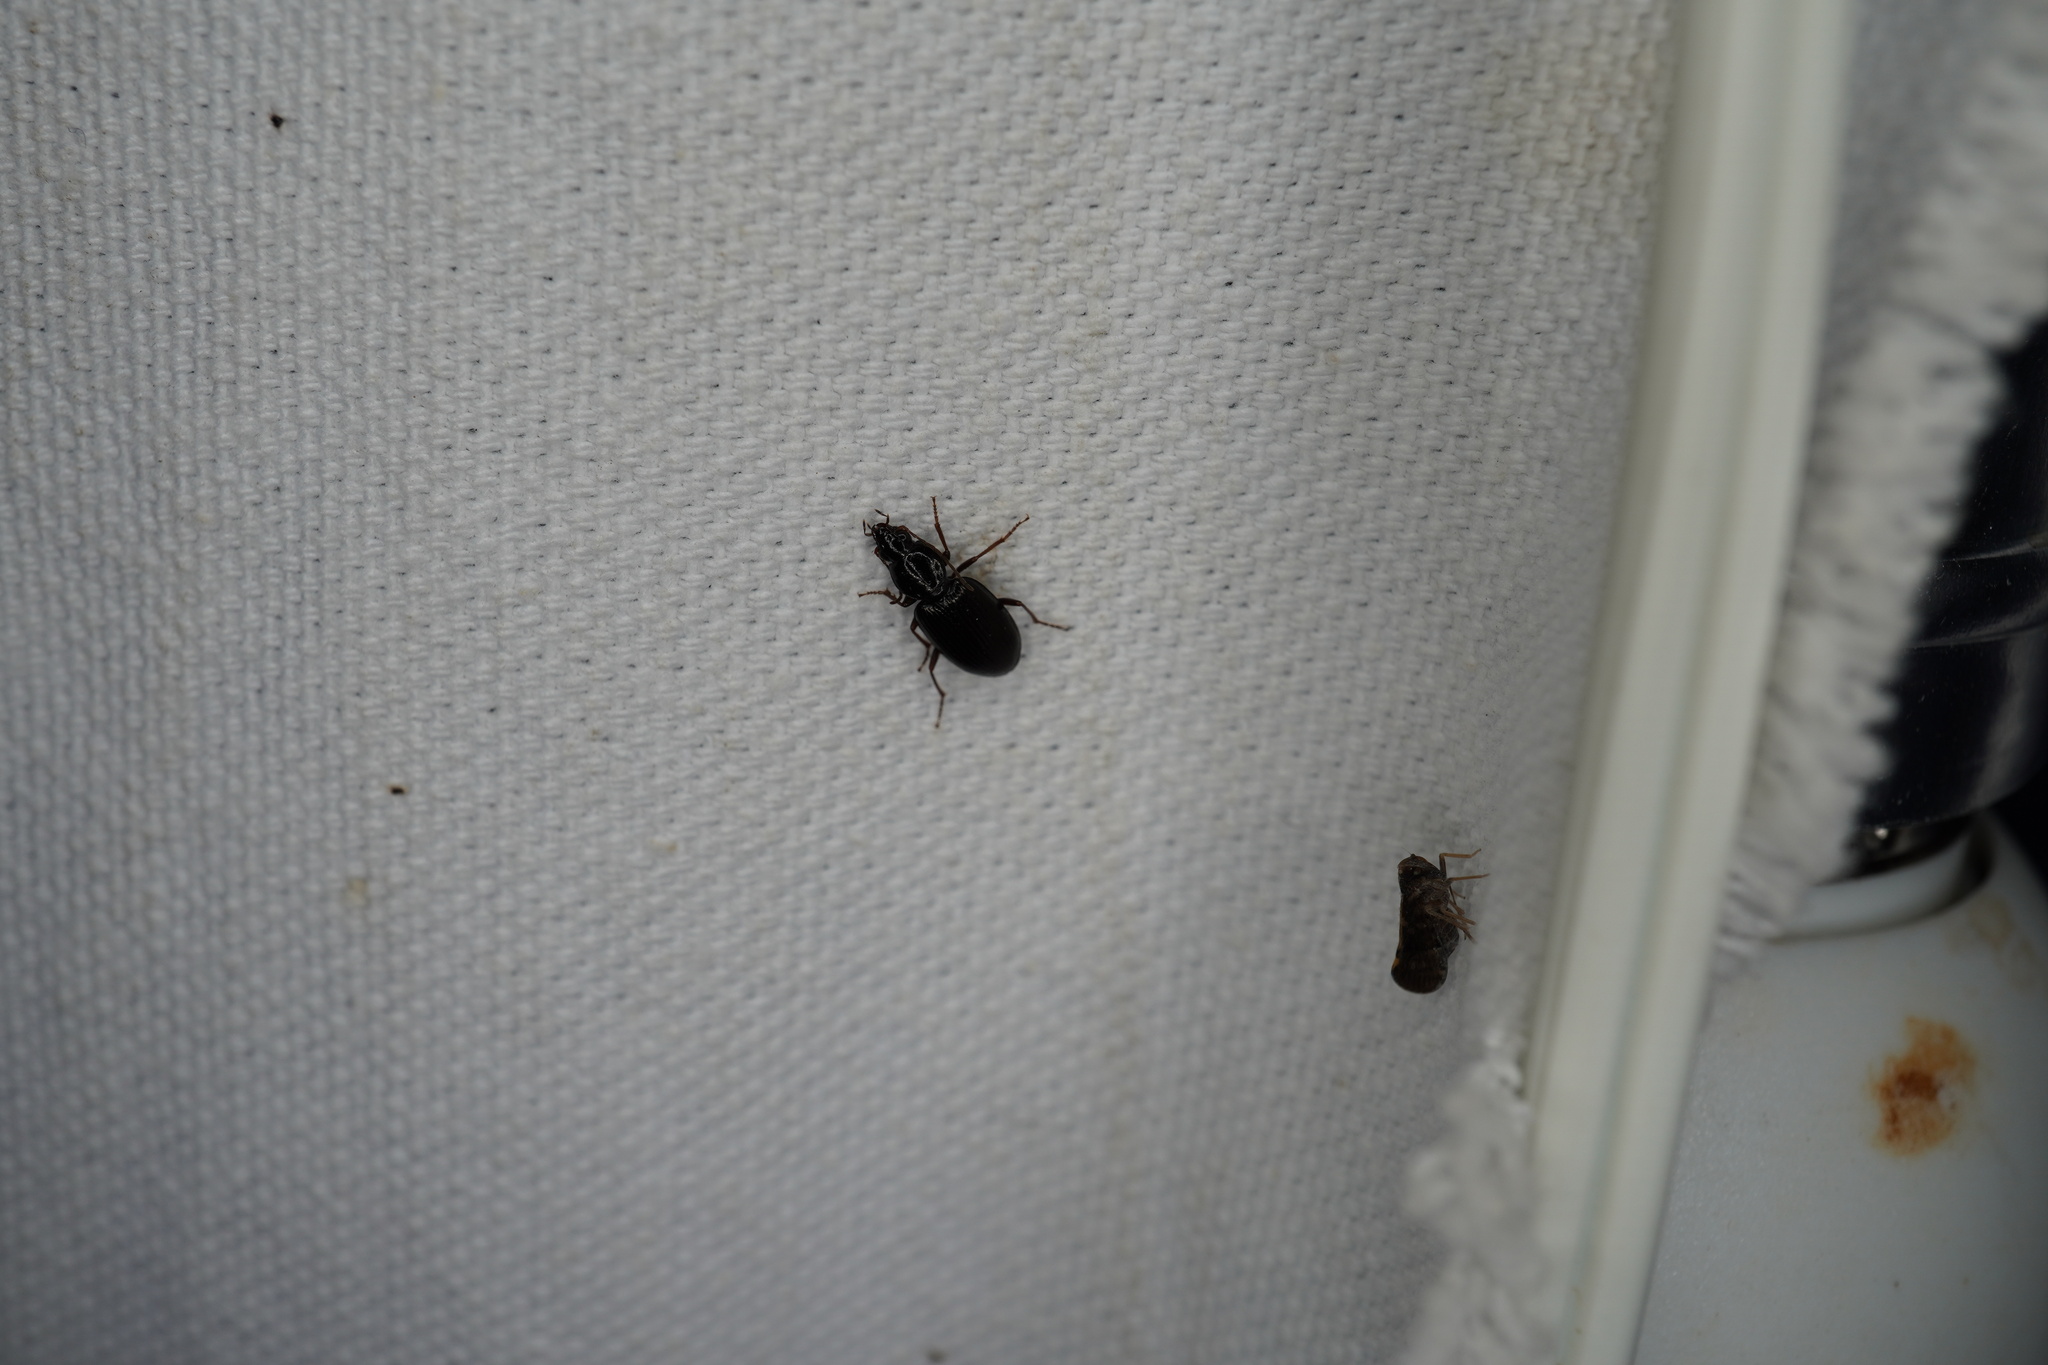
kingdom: Animalia
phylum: Arthropoda
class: Insecta
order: Coleoptera
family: Carabidae
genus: Agonum
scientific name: Agonum punctiforme
